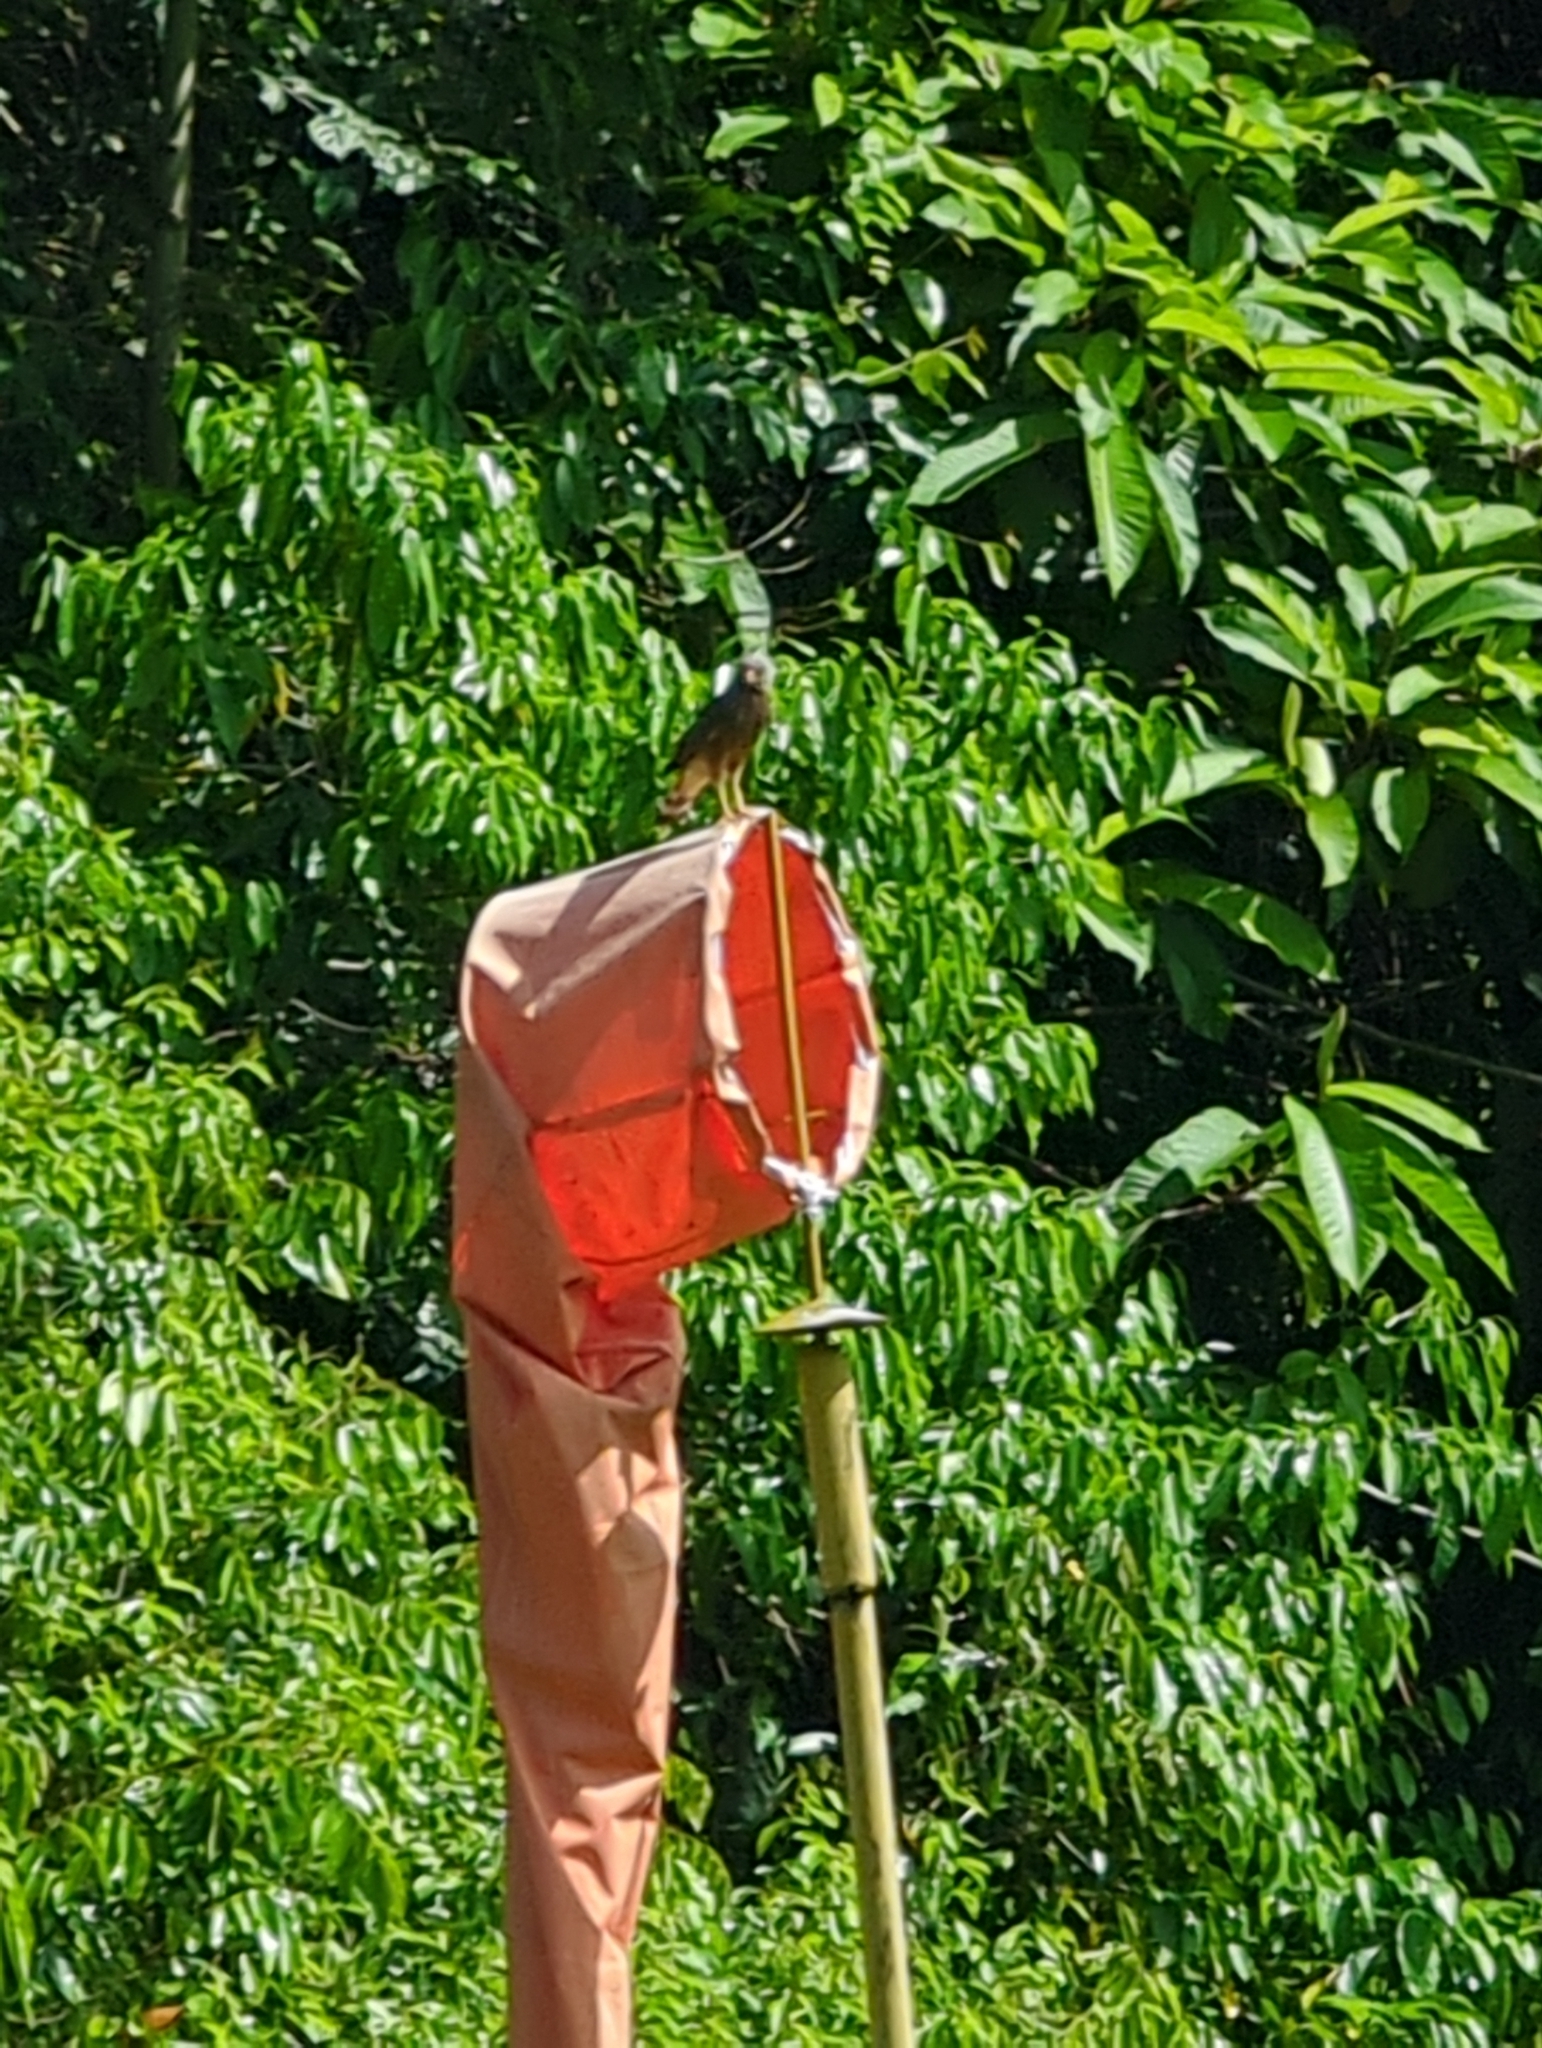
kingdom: Animalia
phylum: Chordata
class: Aves
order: Accipitriformes
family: Accipitridae
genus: Rupornis
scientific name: Rupornis magnirostris
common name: Roadside hawk
